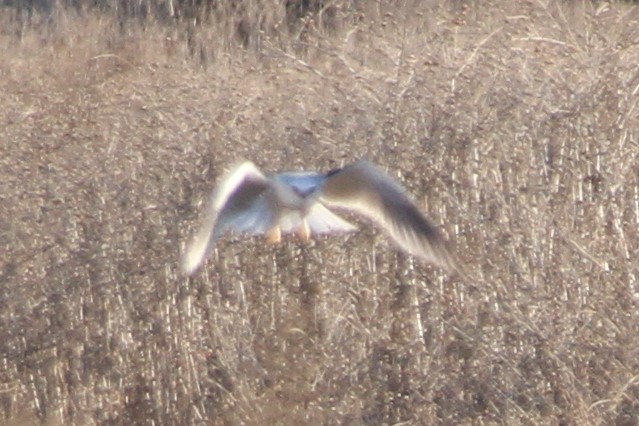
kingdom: Animalia
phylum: Chordata
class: Aves
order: Accipitriformes
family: Accipitridae
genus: Elanus
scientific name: Elanus leucurus
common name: White-tailed kite
